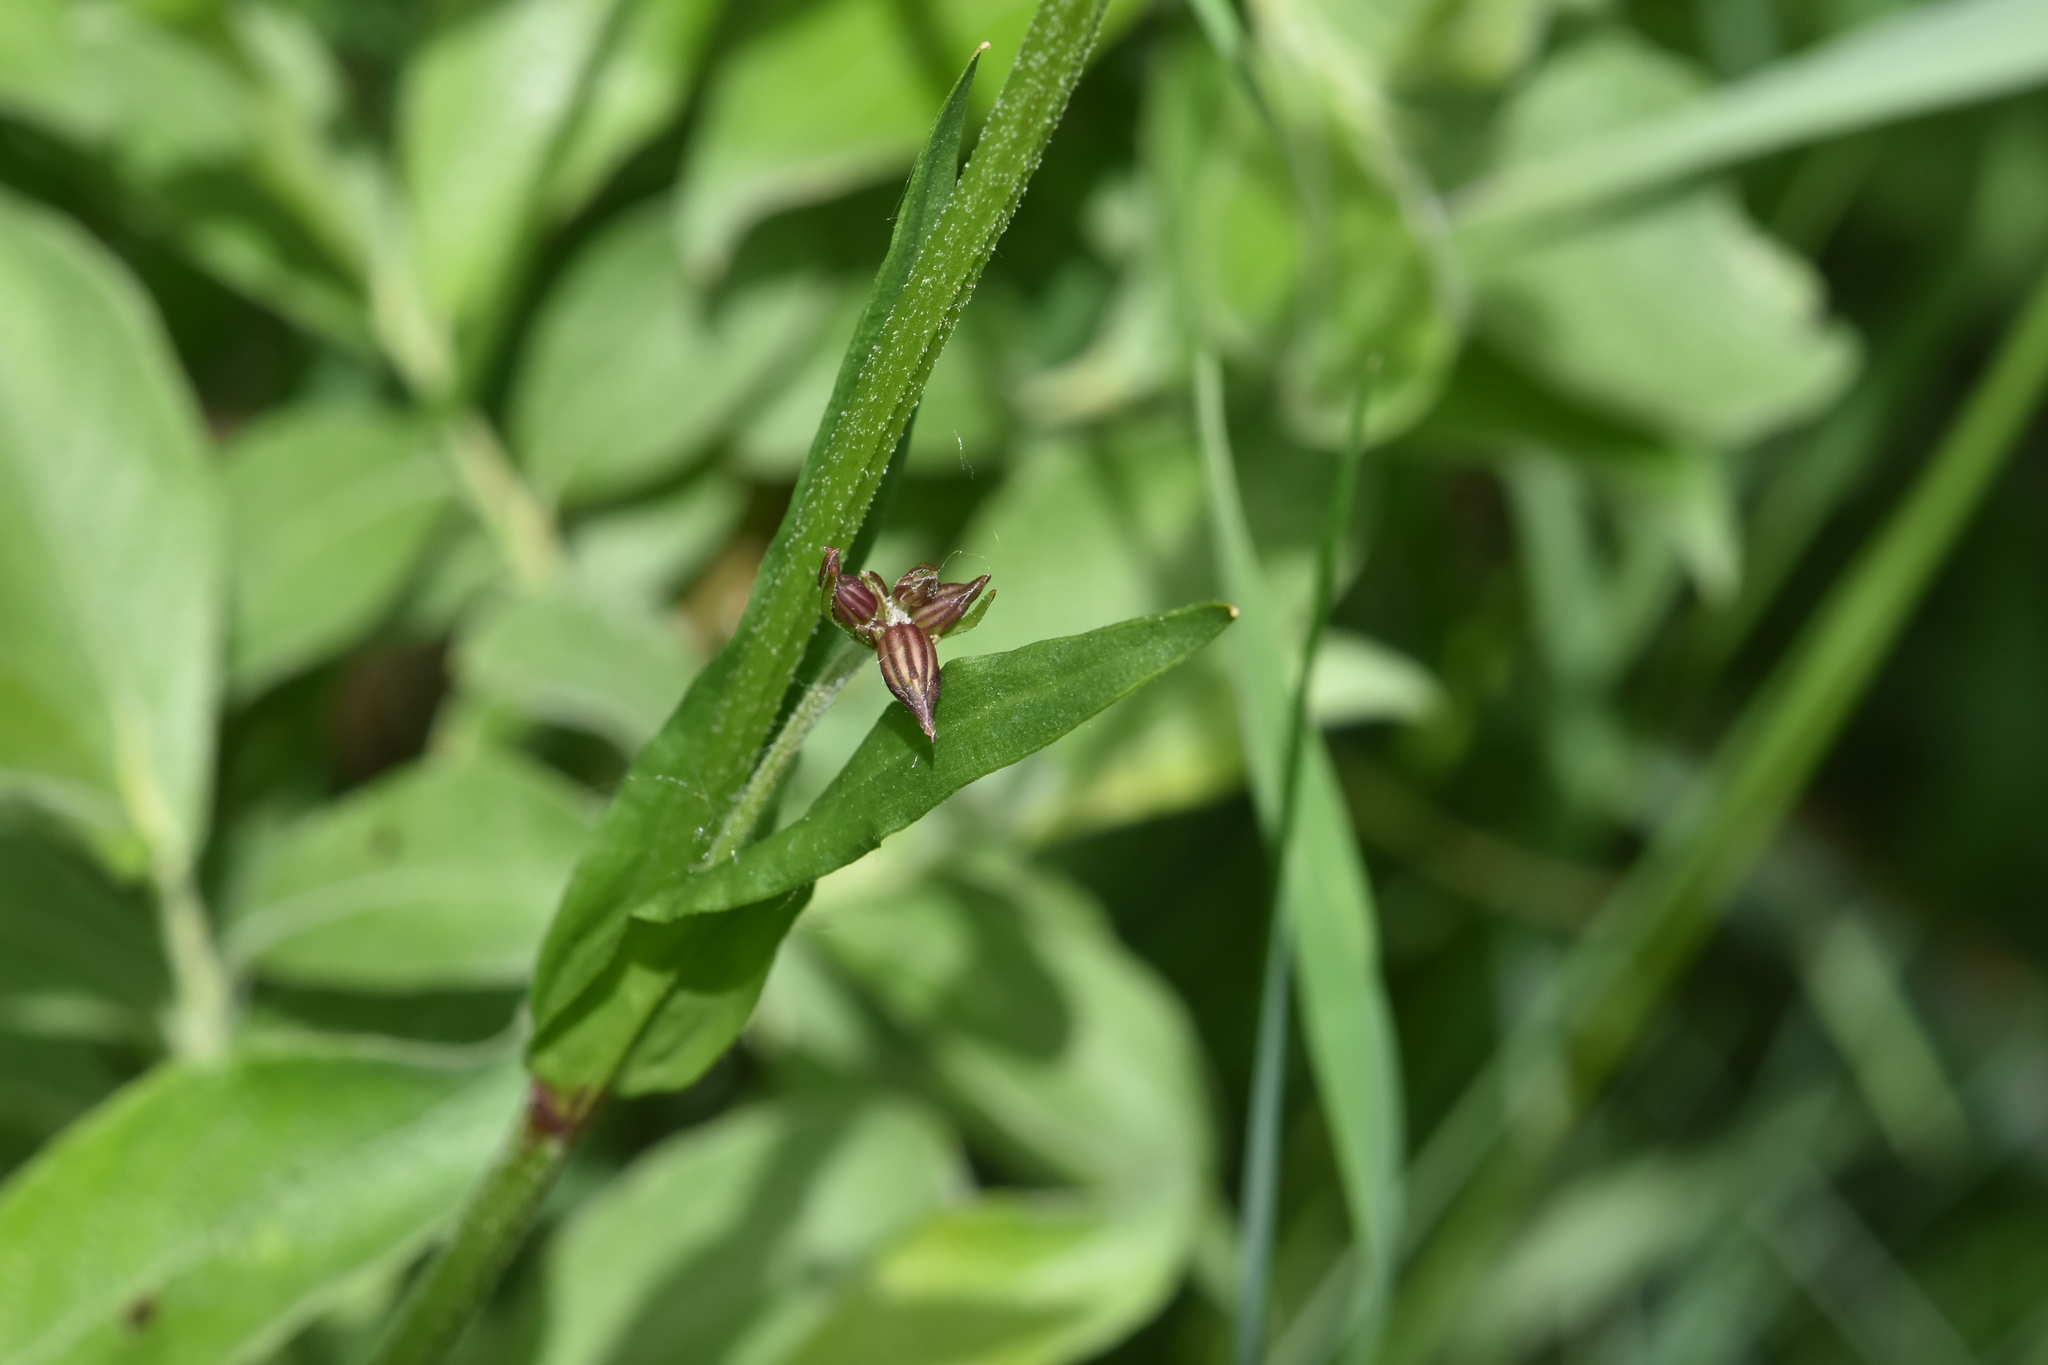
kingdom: Plantae
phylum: Tracheophyta
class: Magnoliopsida
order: Caryophyllales
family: Caryophyllaceae
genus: Silene
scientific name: Silene flos-cuculi
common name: Ragged-robin
